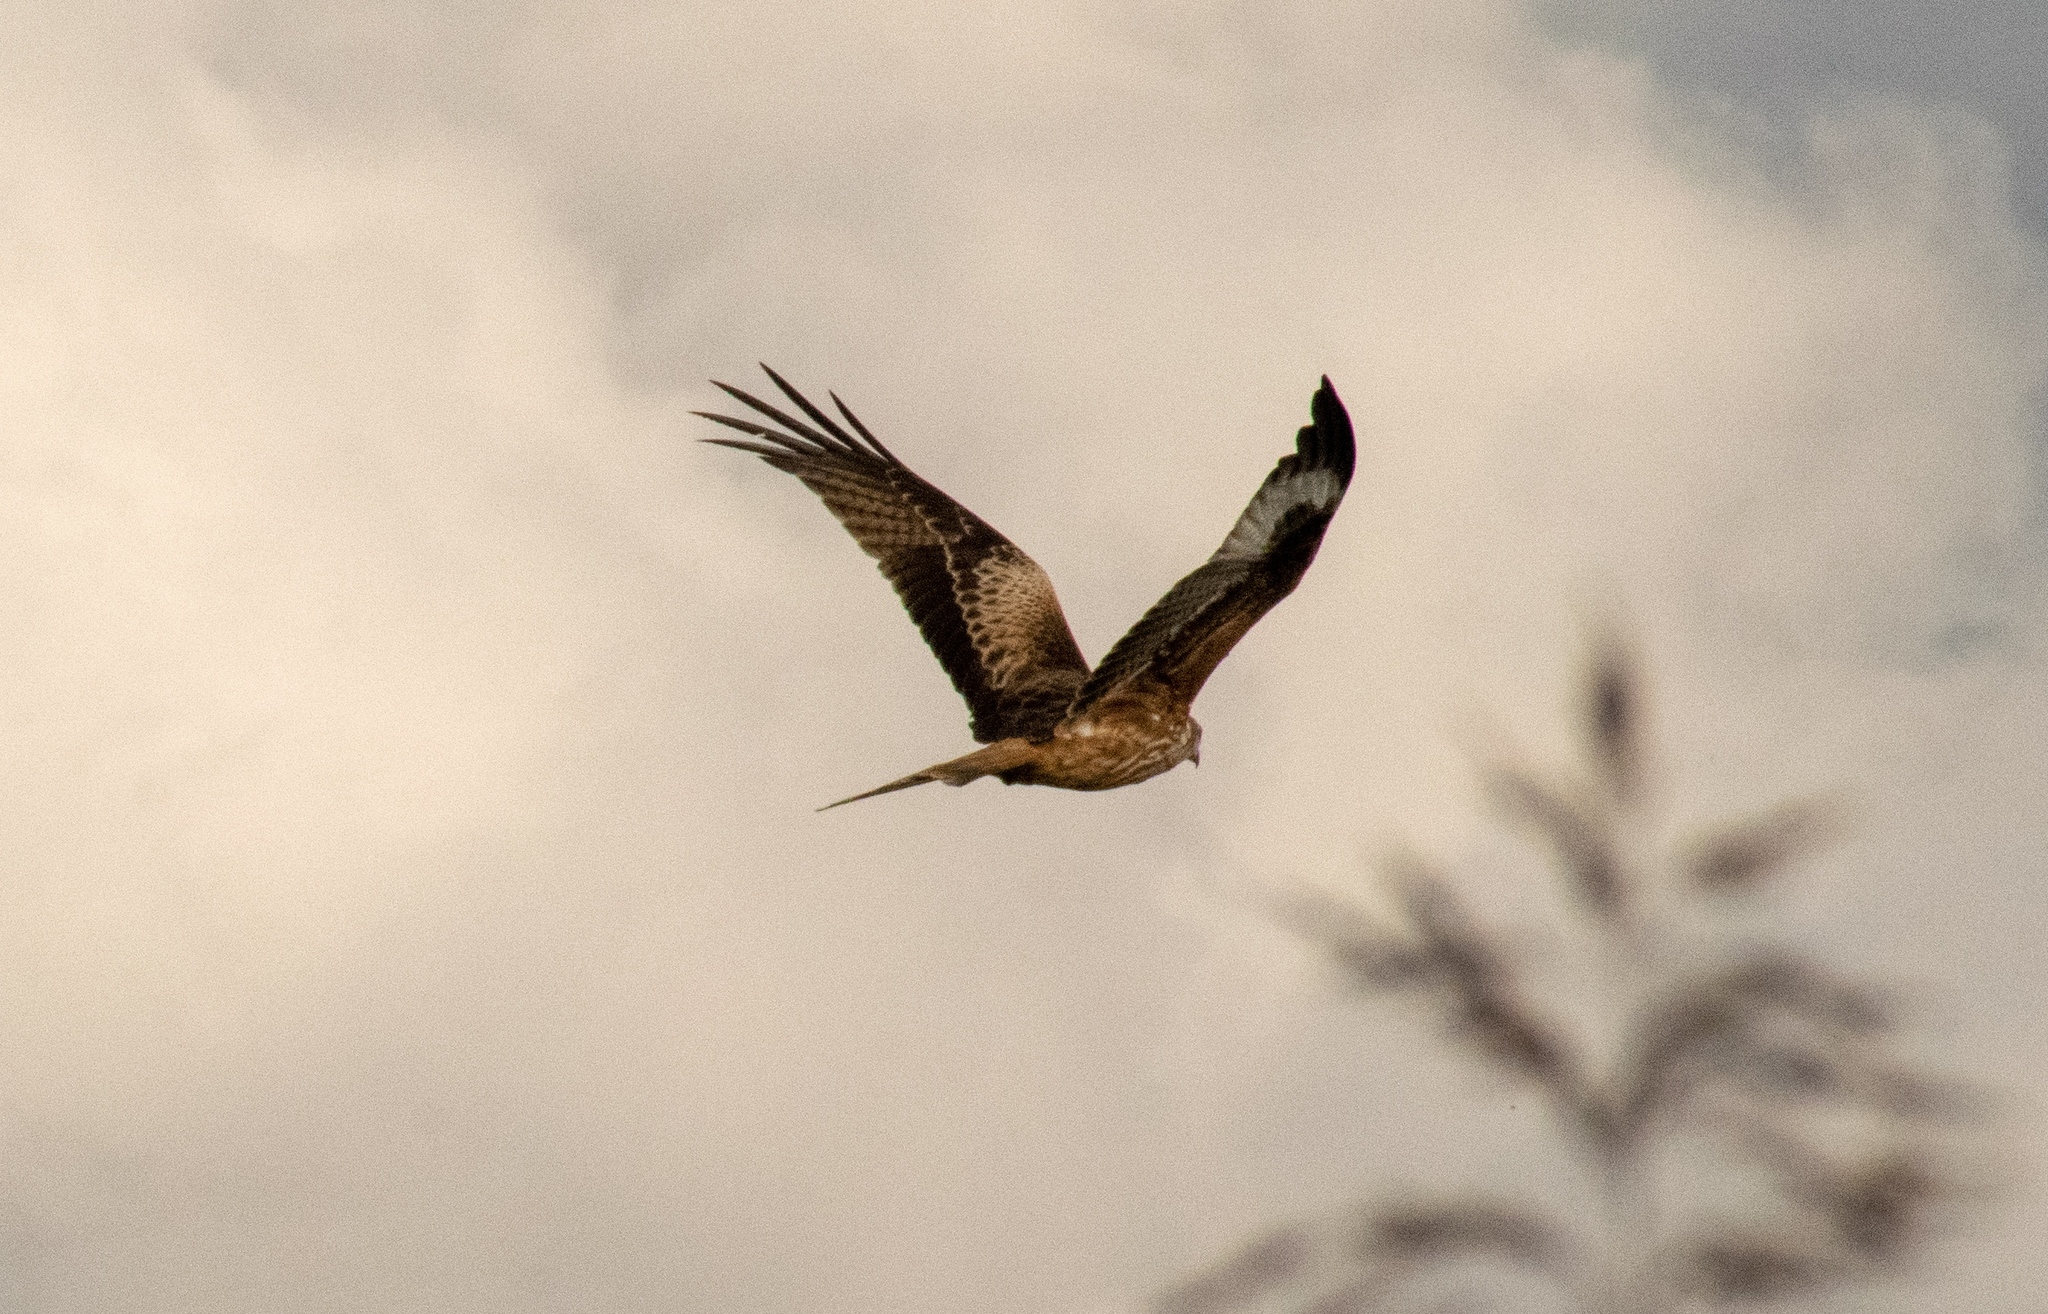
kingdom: Animalia
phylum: Chordata
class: Aves
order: Accipitriformes
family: Accipitridae
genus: Milvus
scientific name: Milvus milvus
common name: Red kite
